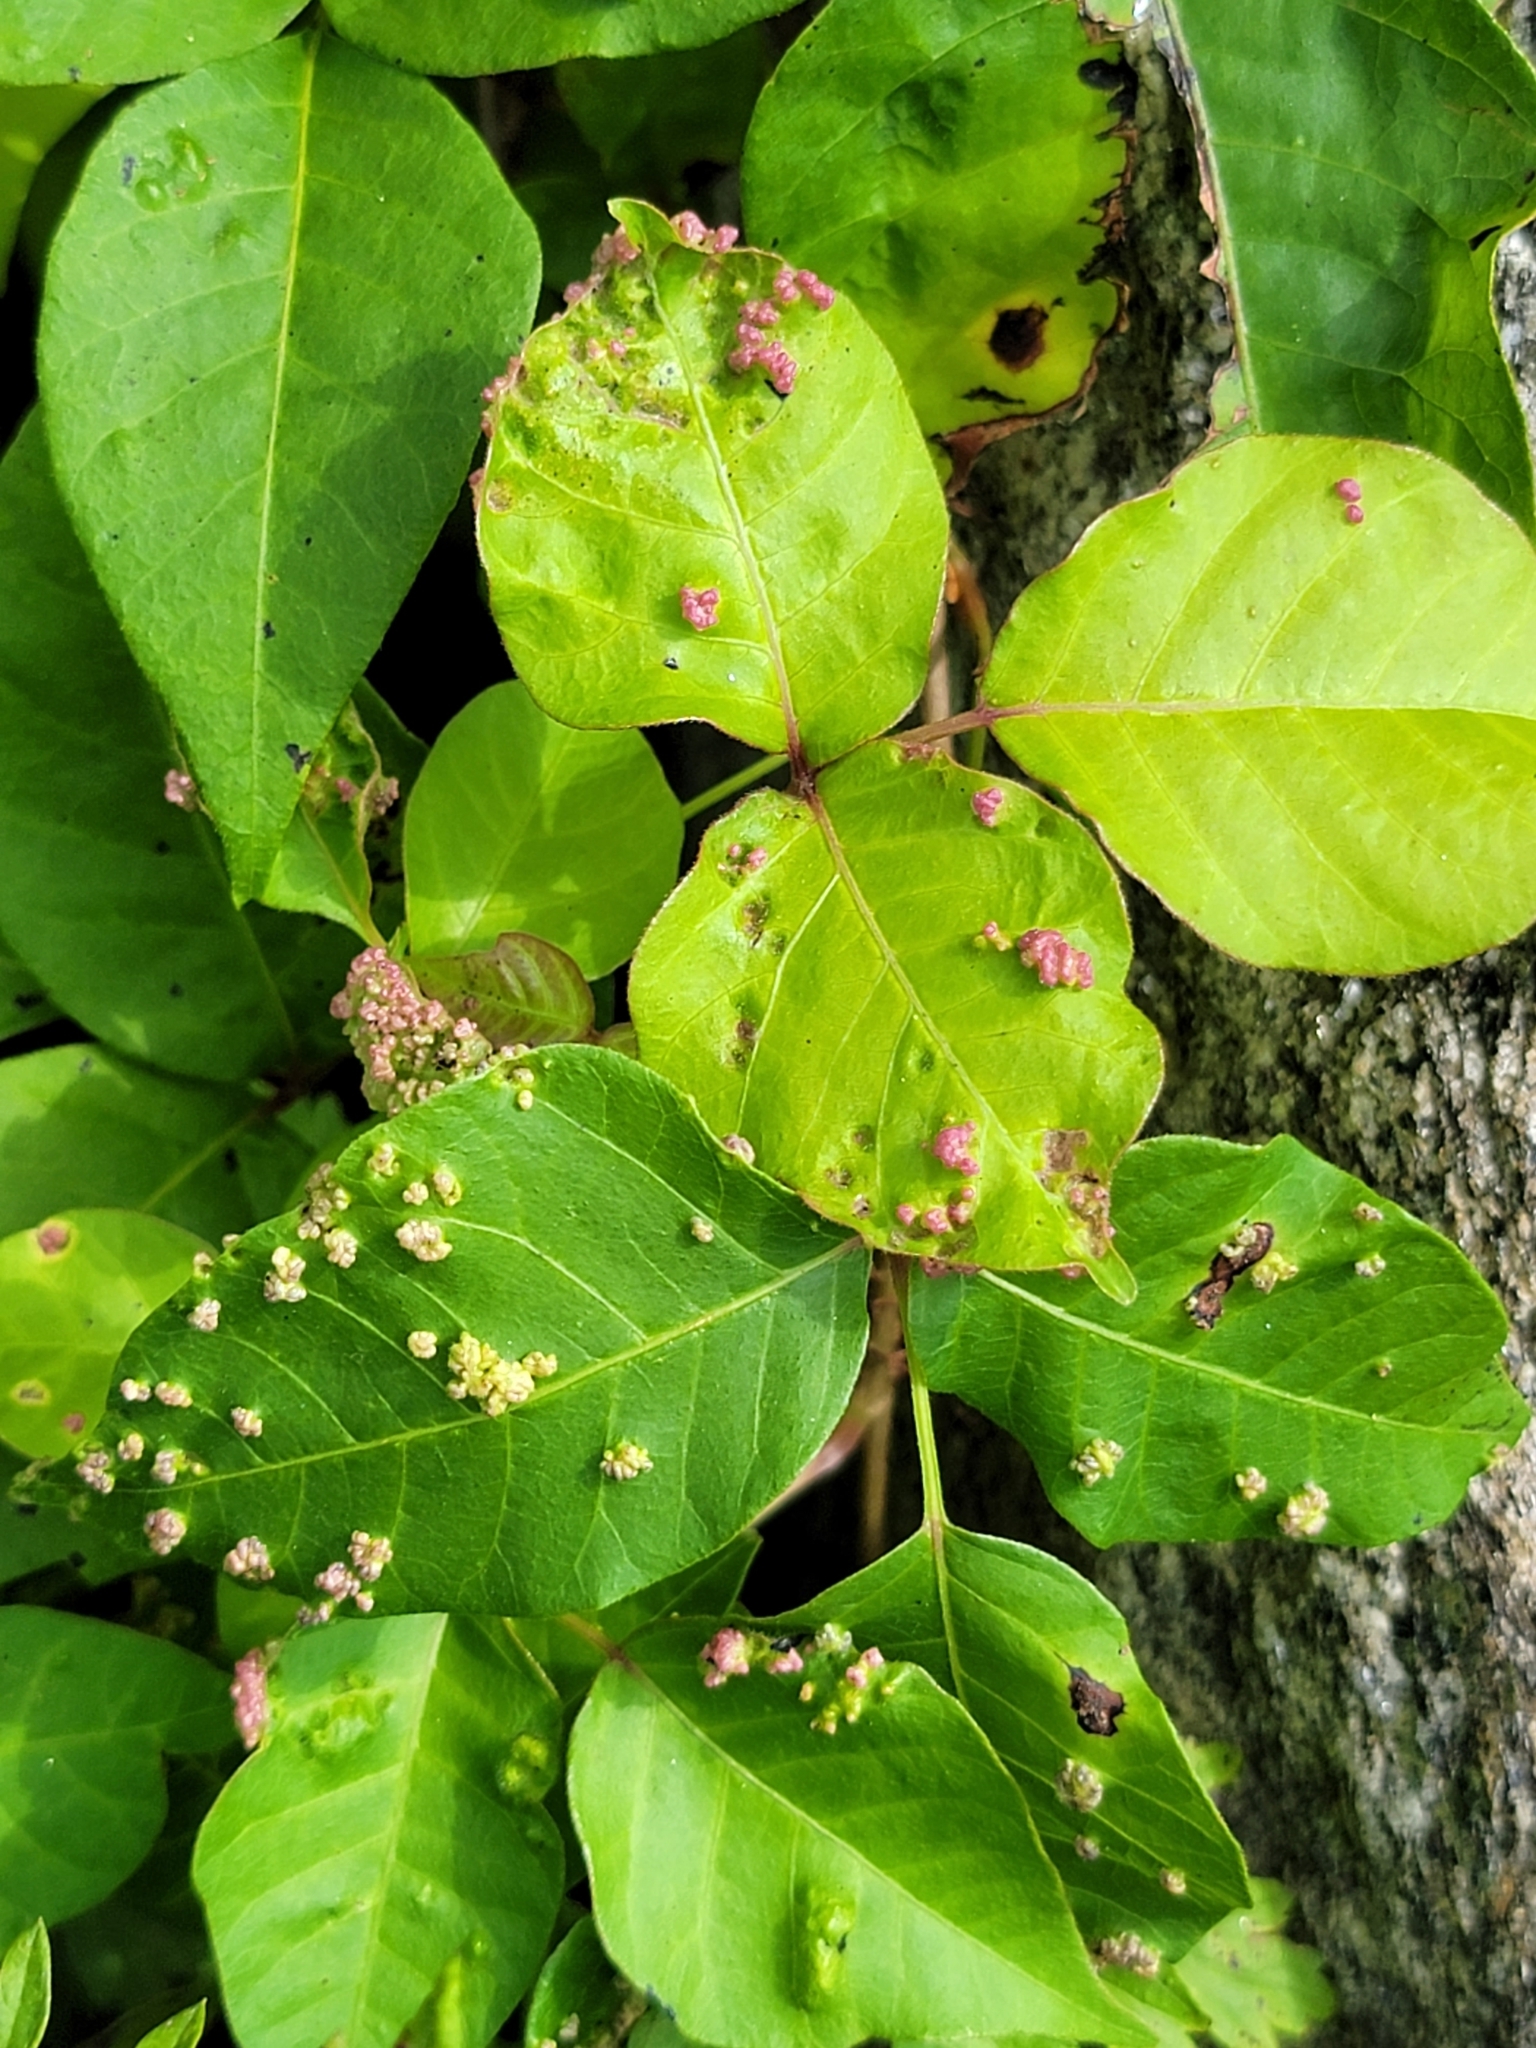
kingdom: Animalia
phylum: Arthropoda
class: Arachnida
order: Trombidiformes
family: Eriophyidae
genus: Aculops
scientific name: Aculops
